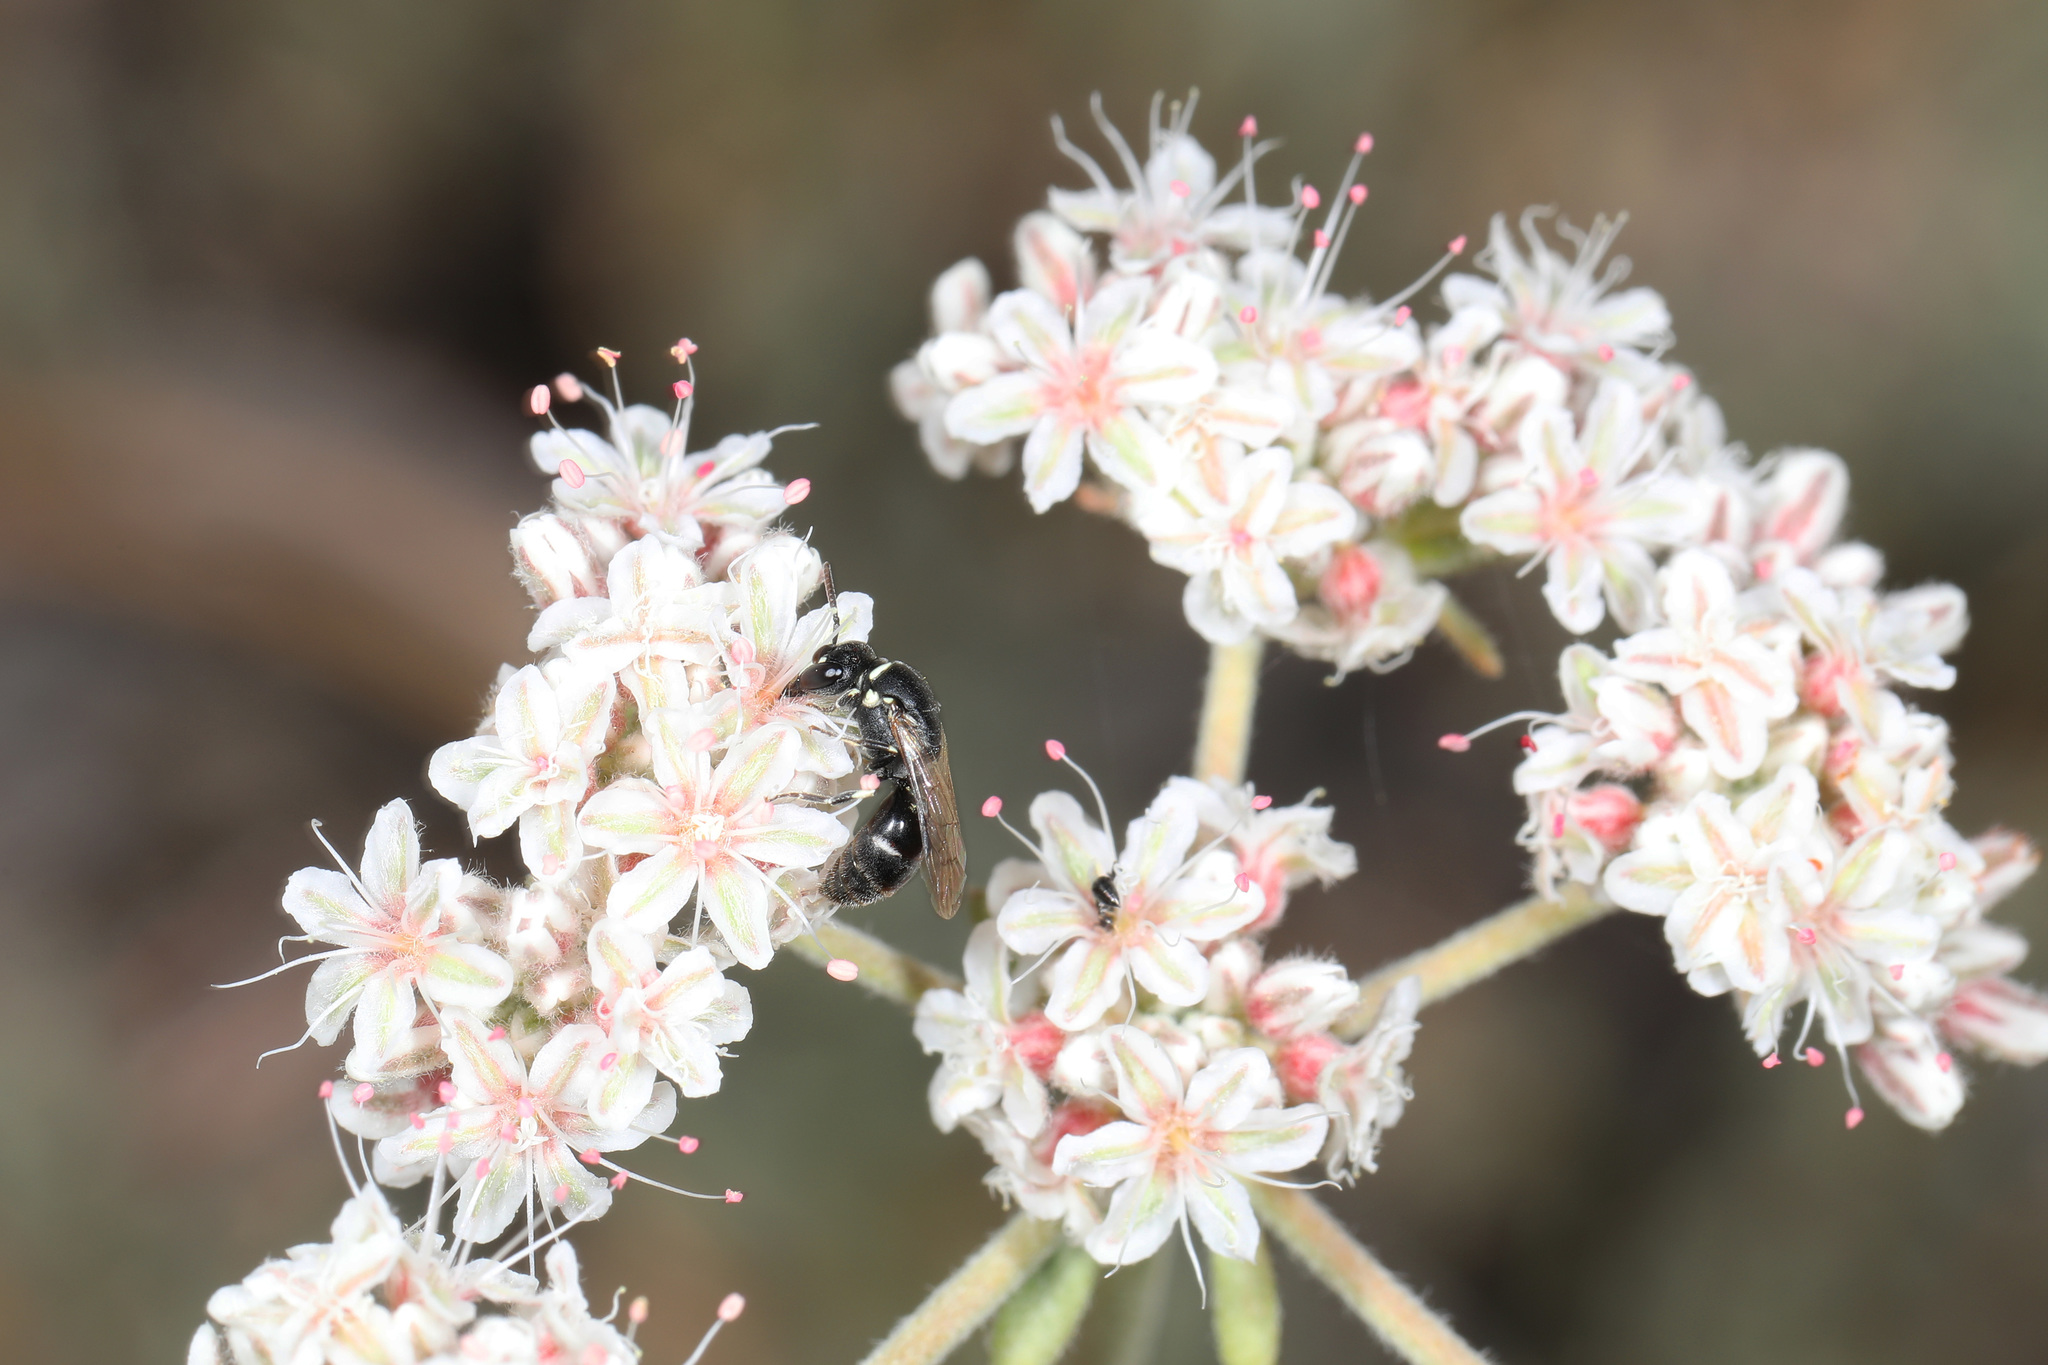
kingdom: Plantae
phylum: Tracheophyta
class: Magnoliopsida
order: Caryophyllales
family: Polygonaceae
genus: Eriogonum
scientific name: Eriogonum fasciculatum
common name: California wild buckwheat
